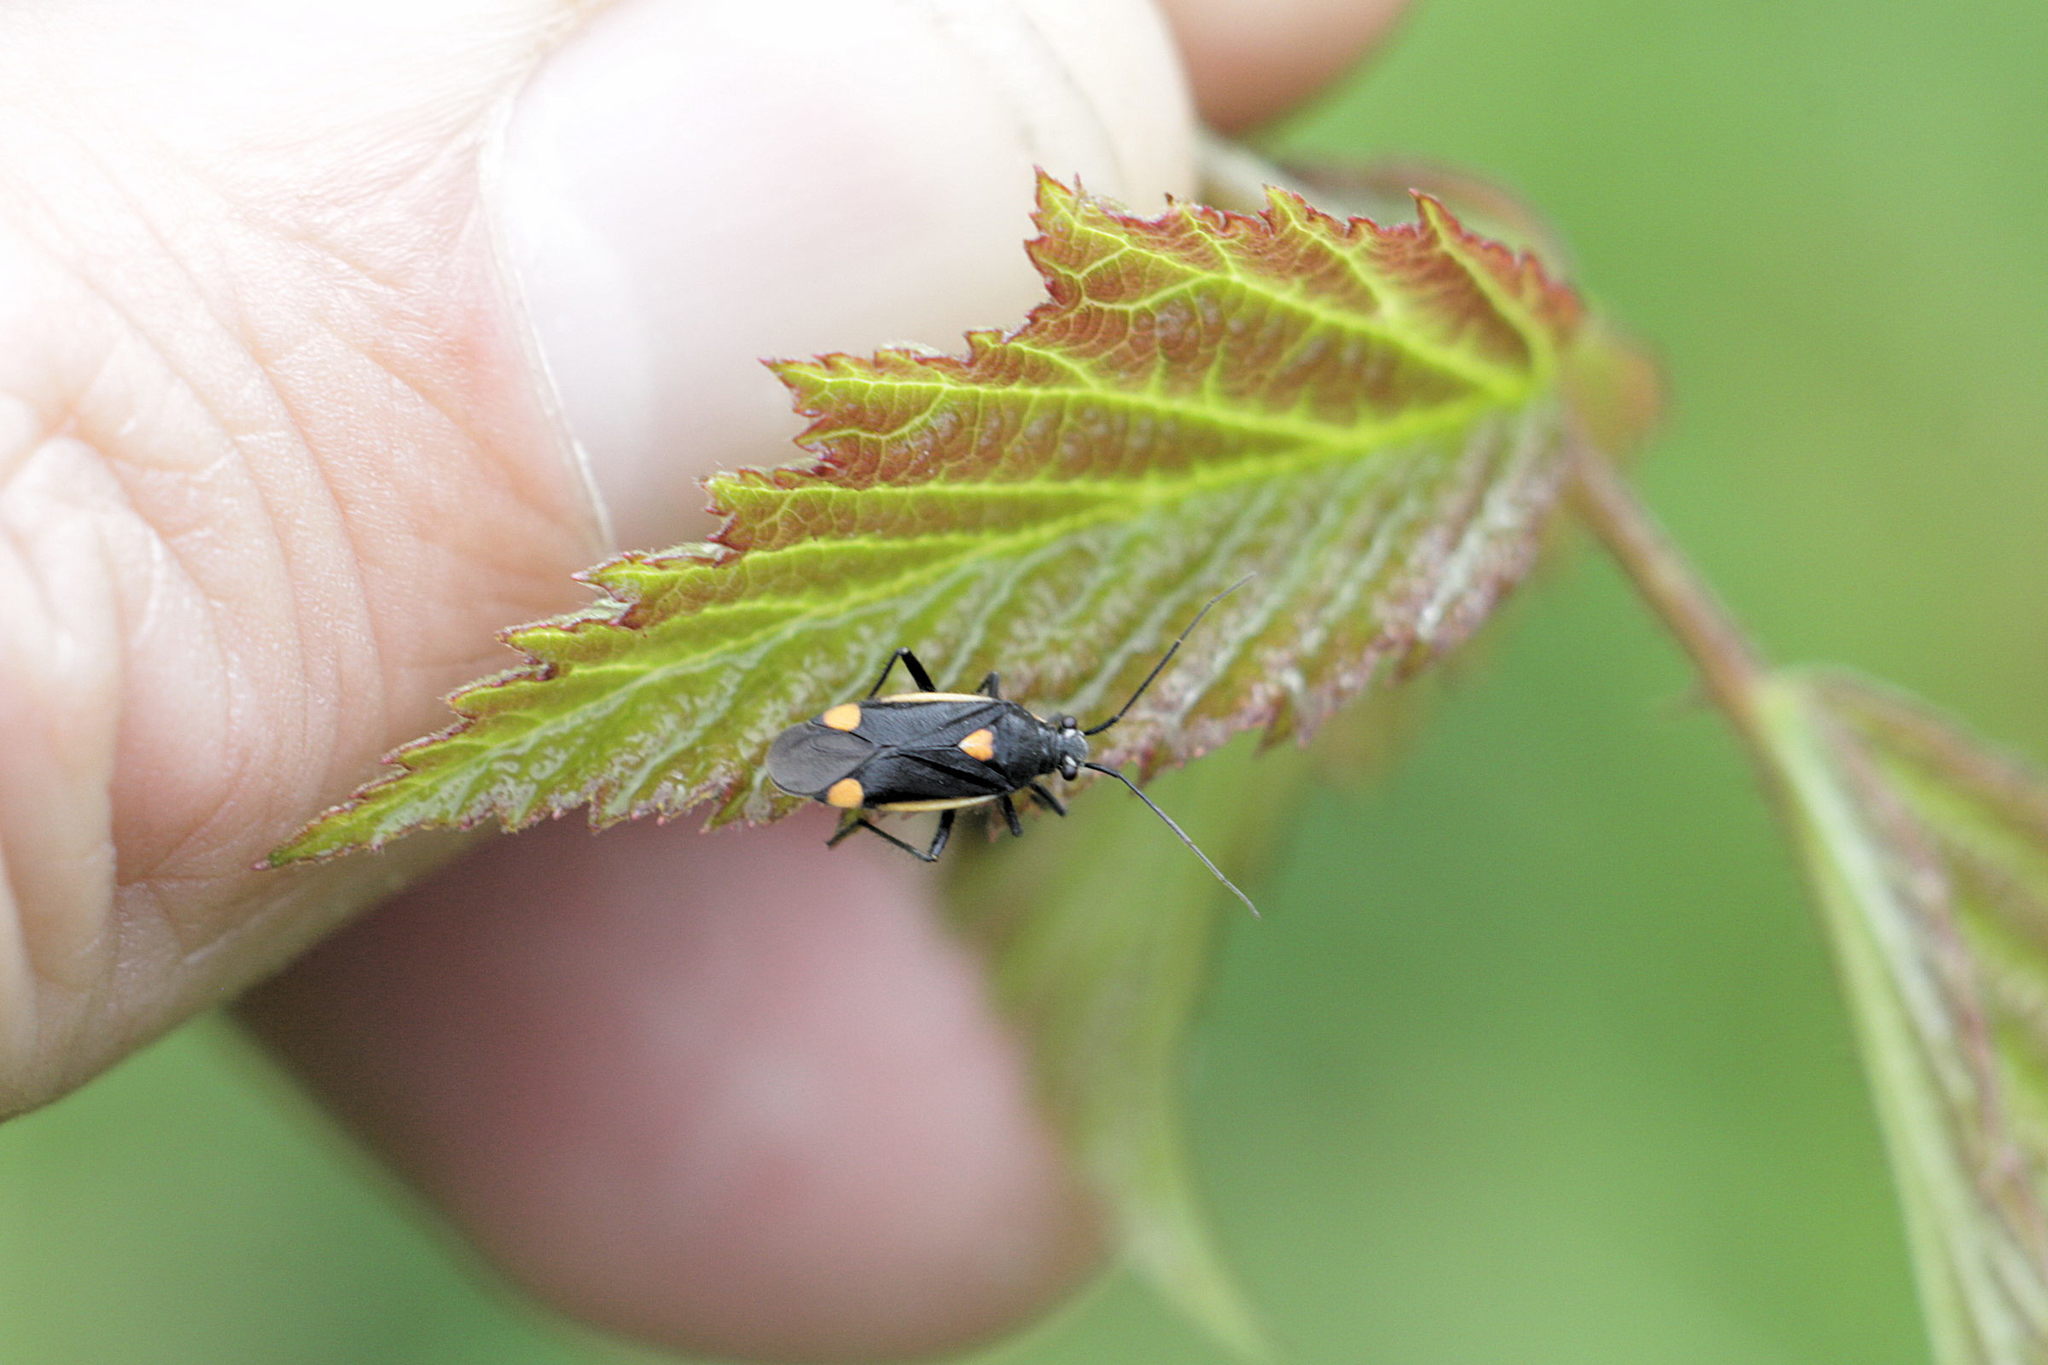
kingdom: Animalia
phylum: Arthropoda
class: Insecta
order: Hemiptera
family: Miridae
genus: Capsodes
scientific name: Capsodes gothicus
